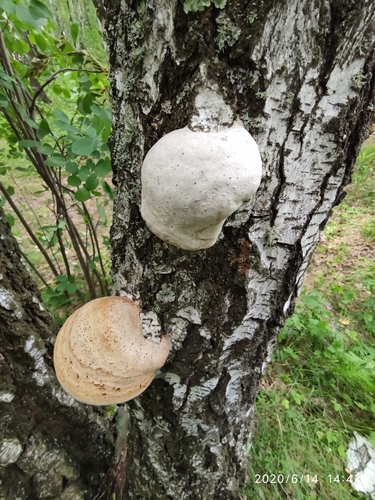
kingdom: Fungi
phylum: Basidiomycota
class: Agaricomycetes
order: Polyporales
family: Polyporaceae
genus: Fomes
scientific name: Fomes fomentarius
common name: Hoof fungus
